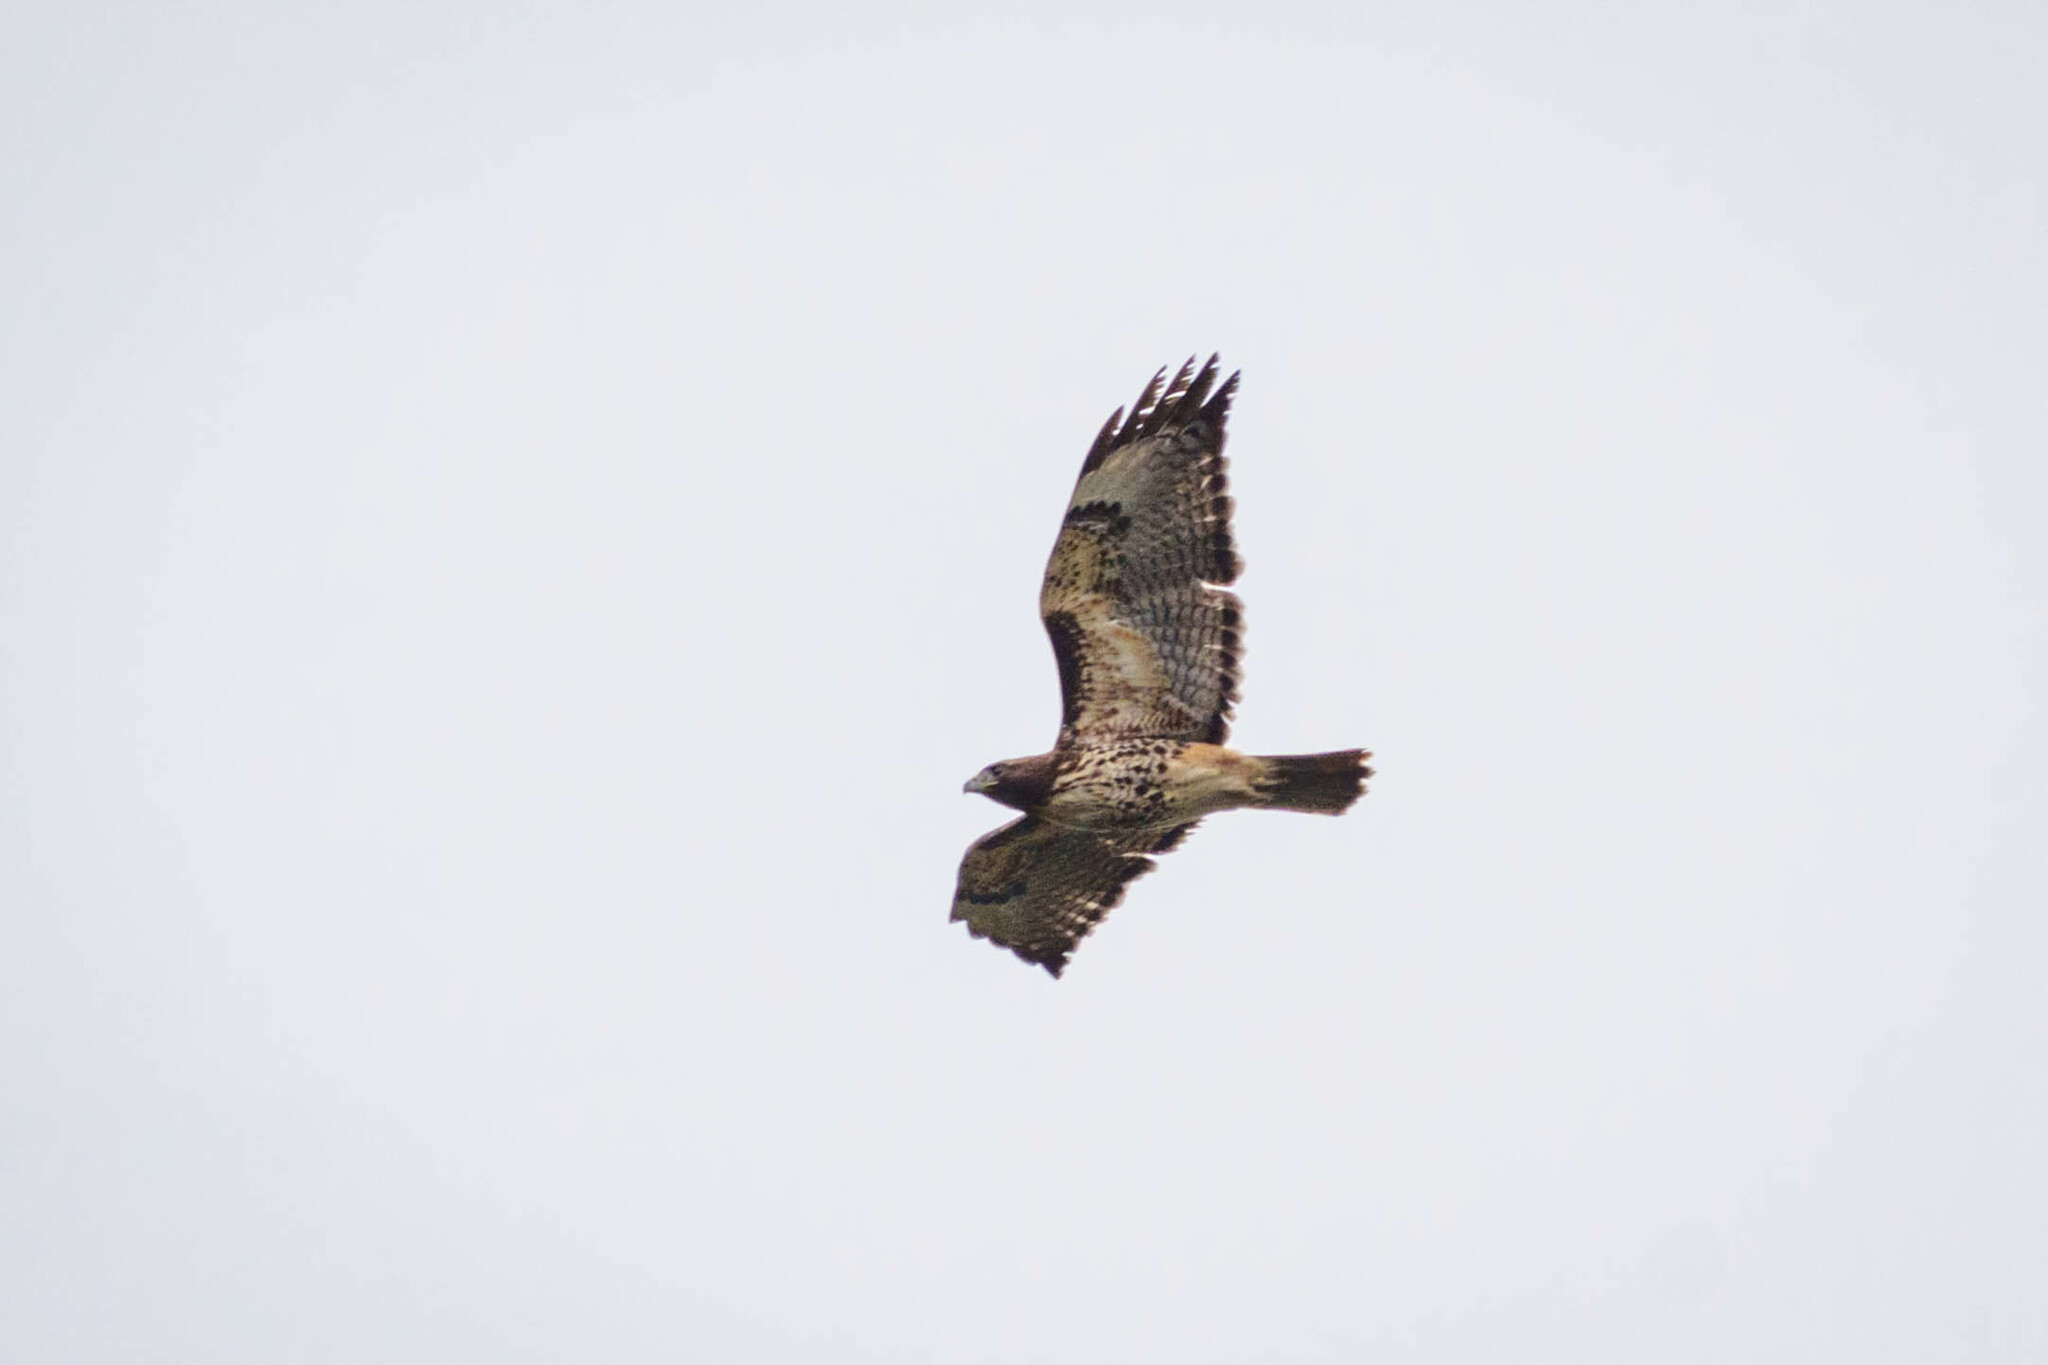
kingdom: Animalia
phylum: Chordata
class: Aves
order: Accipitriformes
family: Accipitridae
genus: Buteo
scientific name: Buteo jamaicensis
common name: Red-tailed hawk
